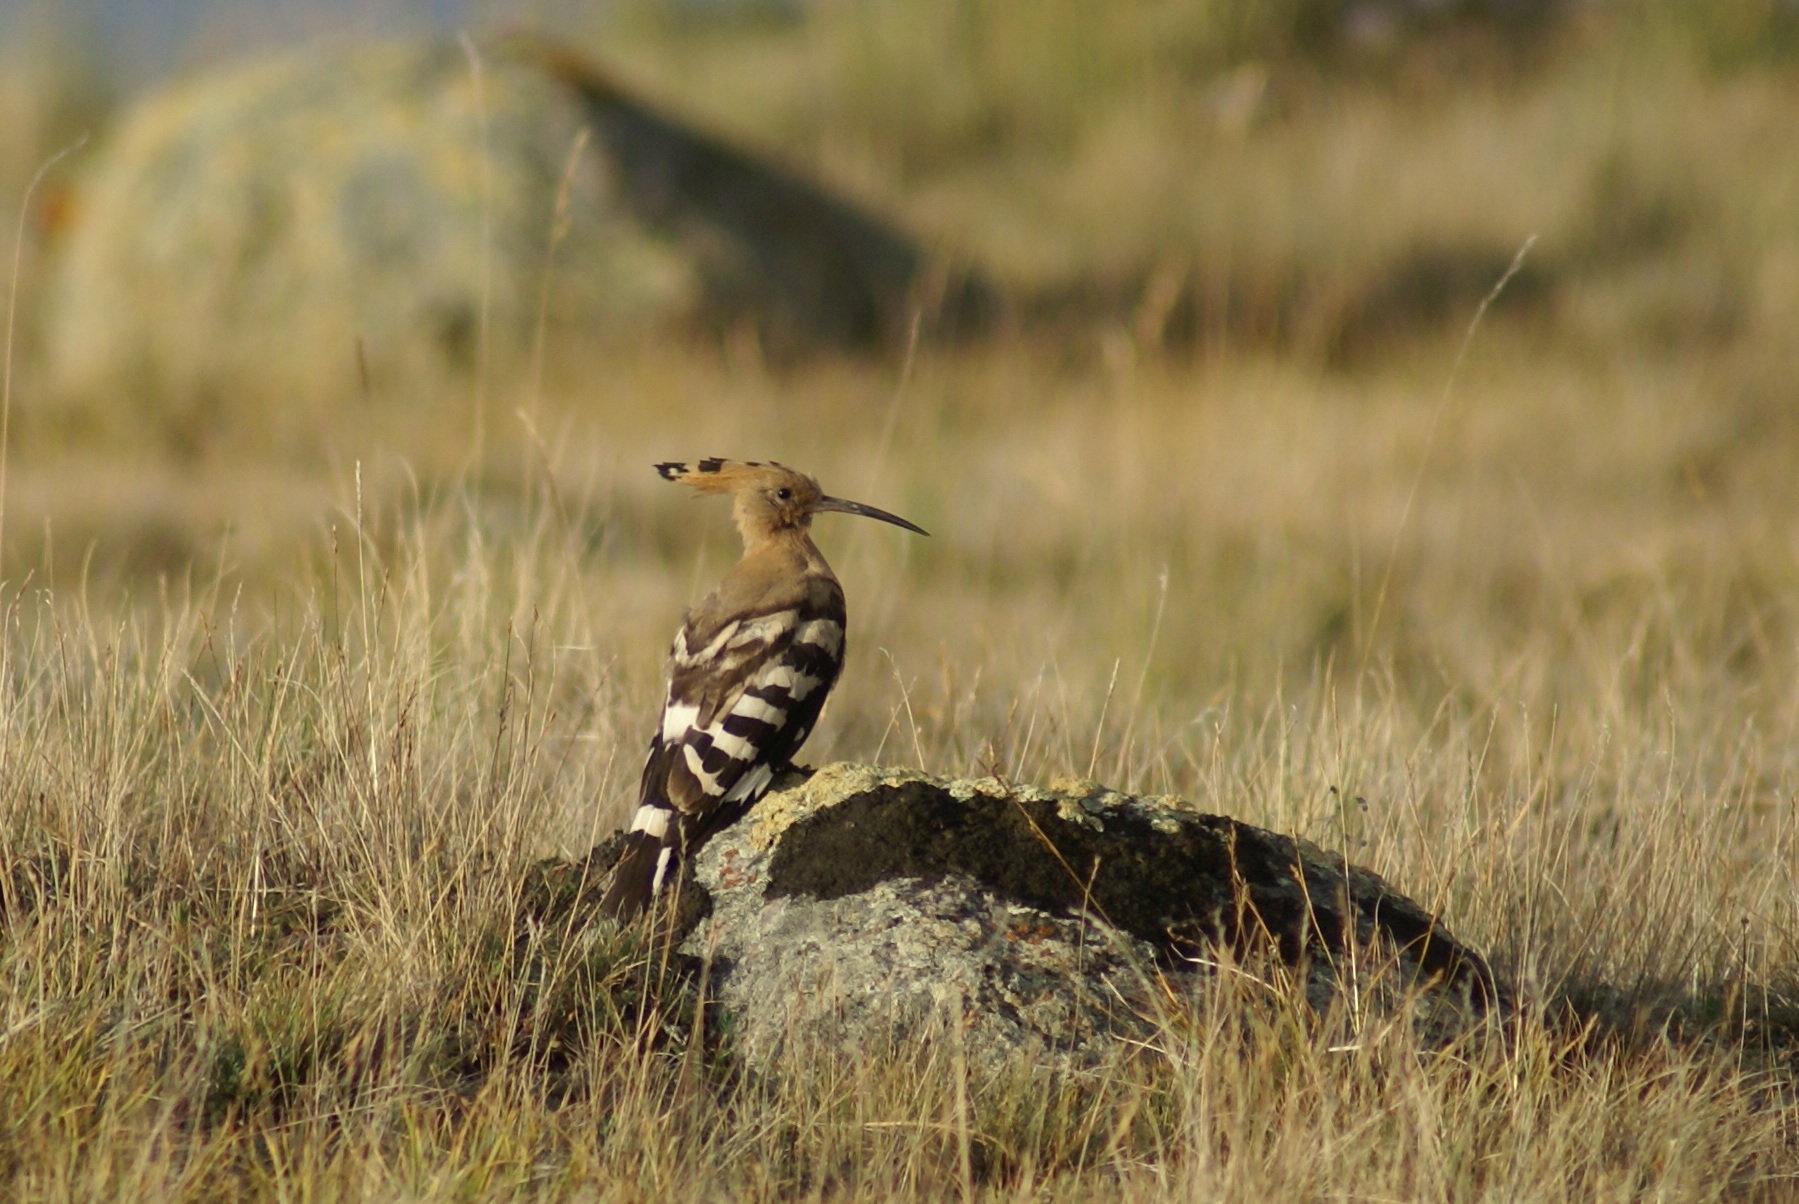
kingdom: Animalia
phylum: Chordata
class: Aves
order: Bucerotiformes
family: Upupidae
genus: Upupa
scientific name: Upupa epops
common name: Eurasian hoopoe
